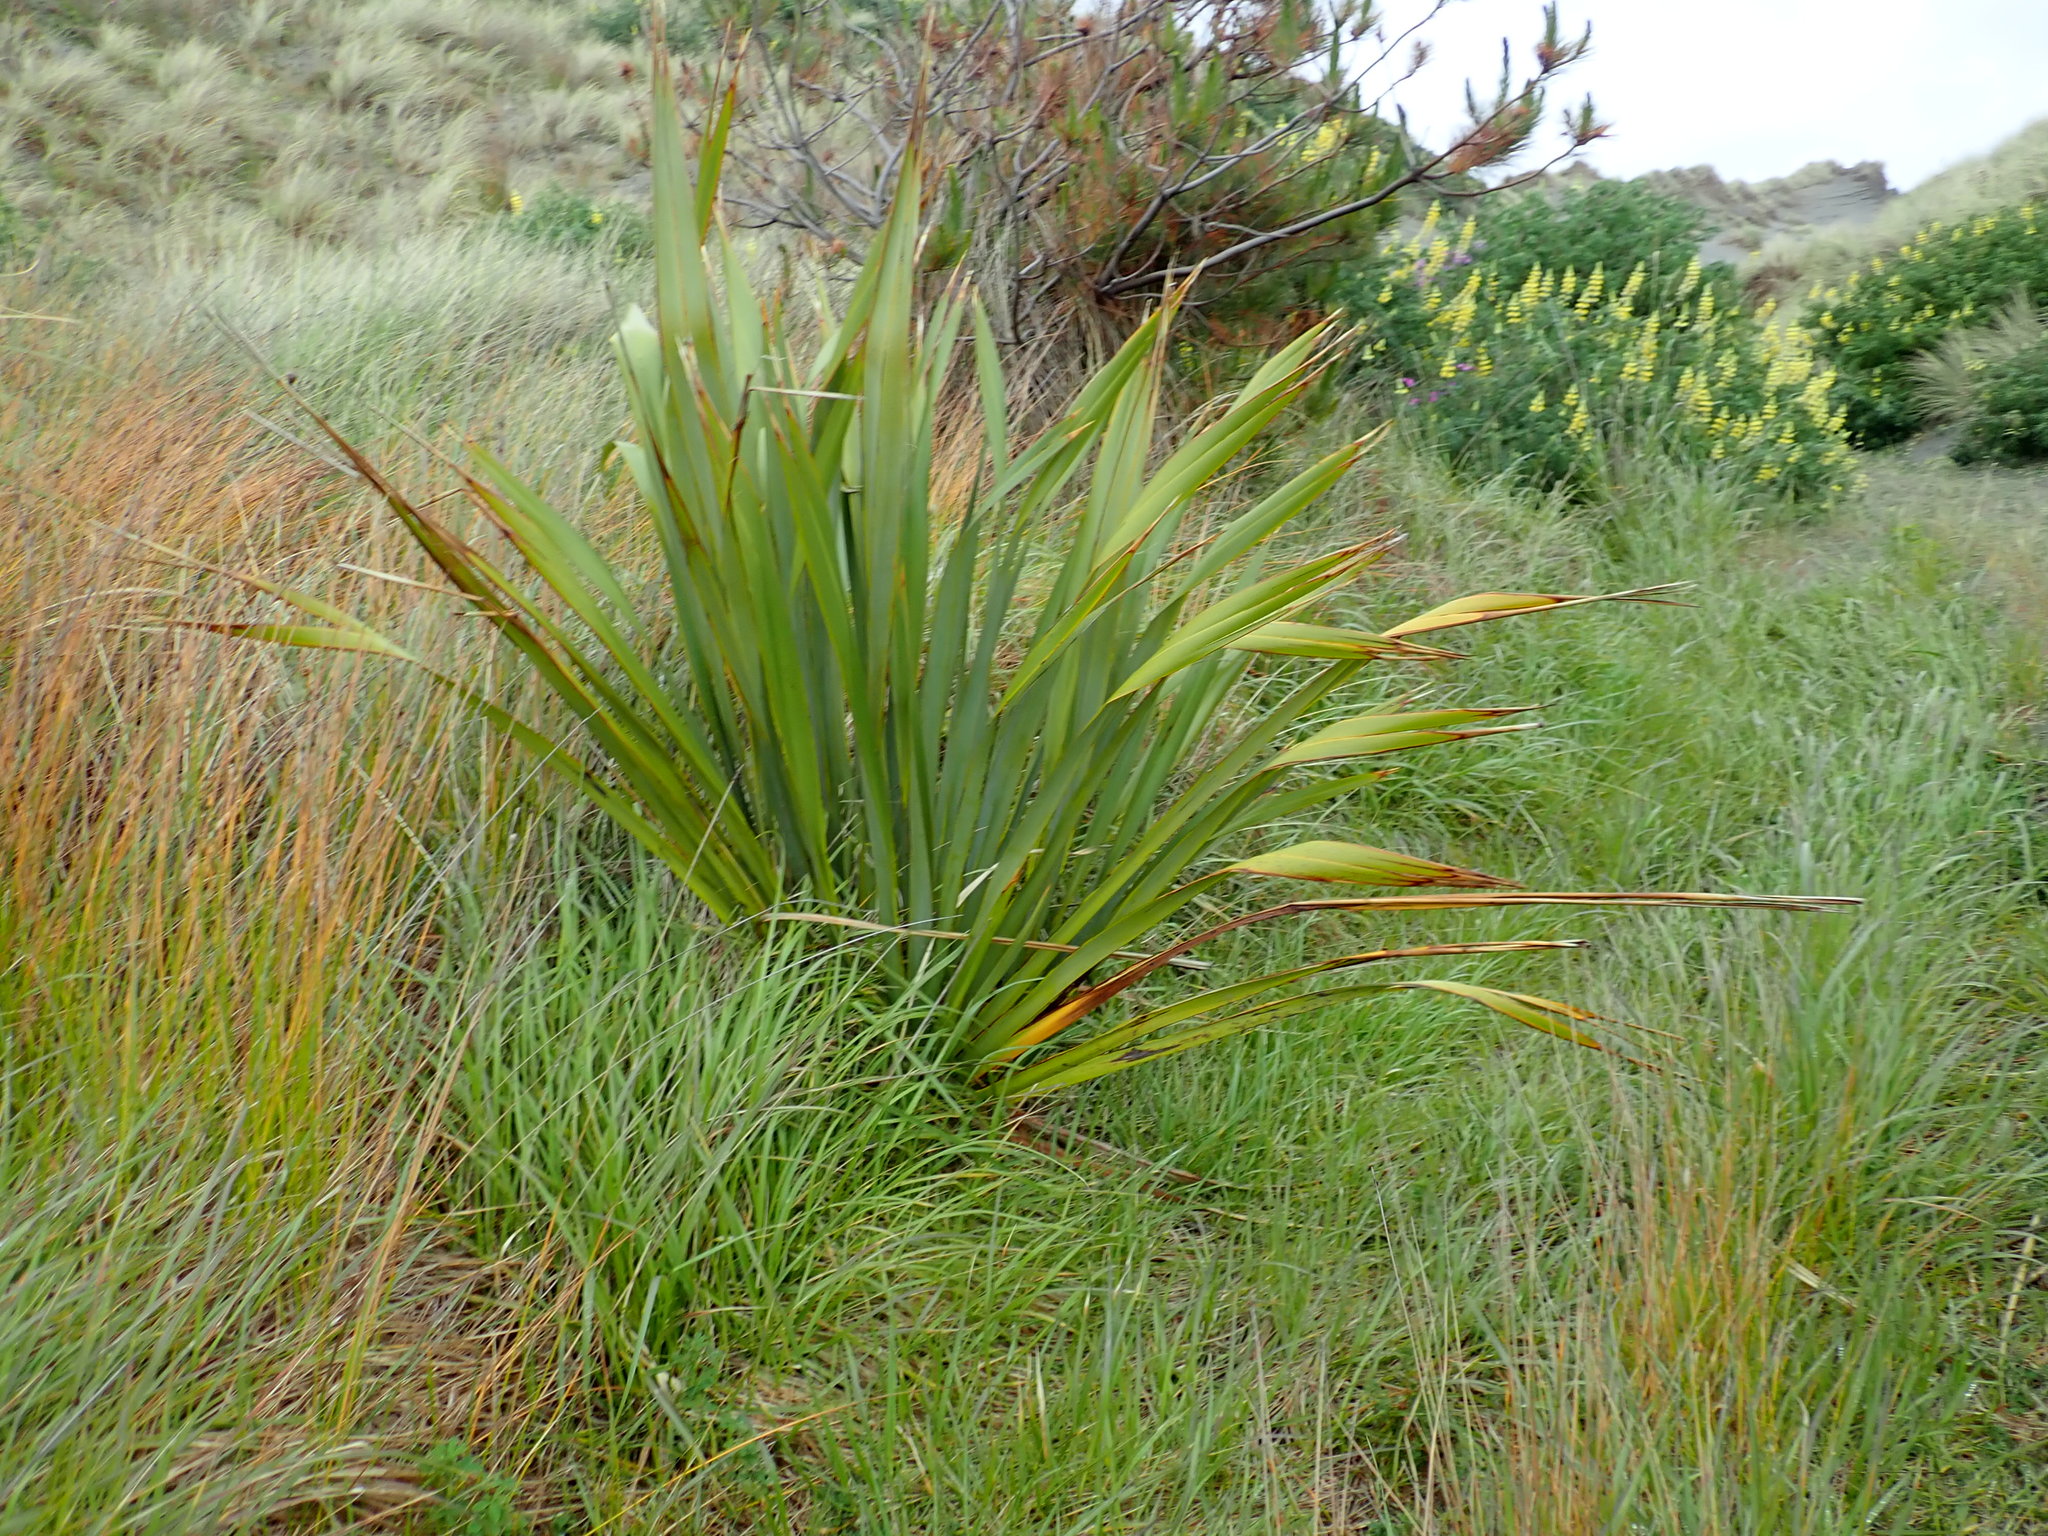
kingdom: Plantae
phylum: Tracheophyta
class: Liliopsida
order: Asparagales
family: Asphodelaceae
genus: Phormium
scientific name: Phormium tenax
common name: New zealand flax
